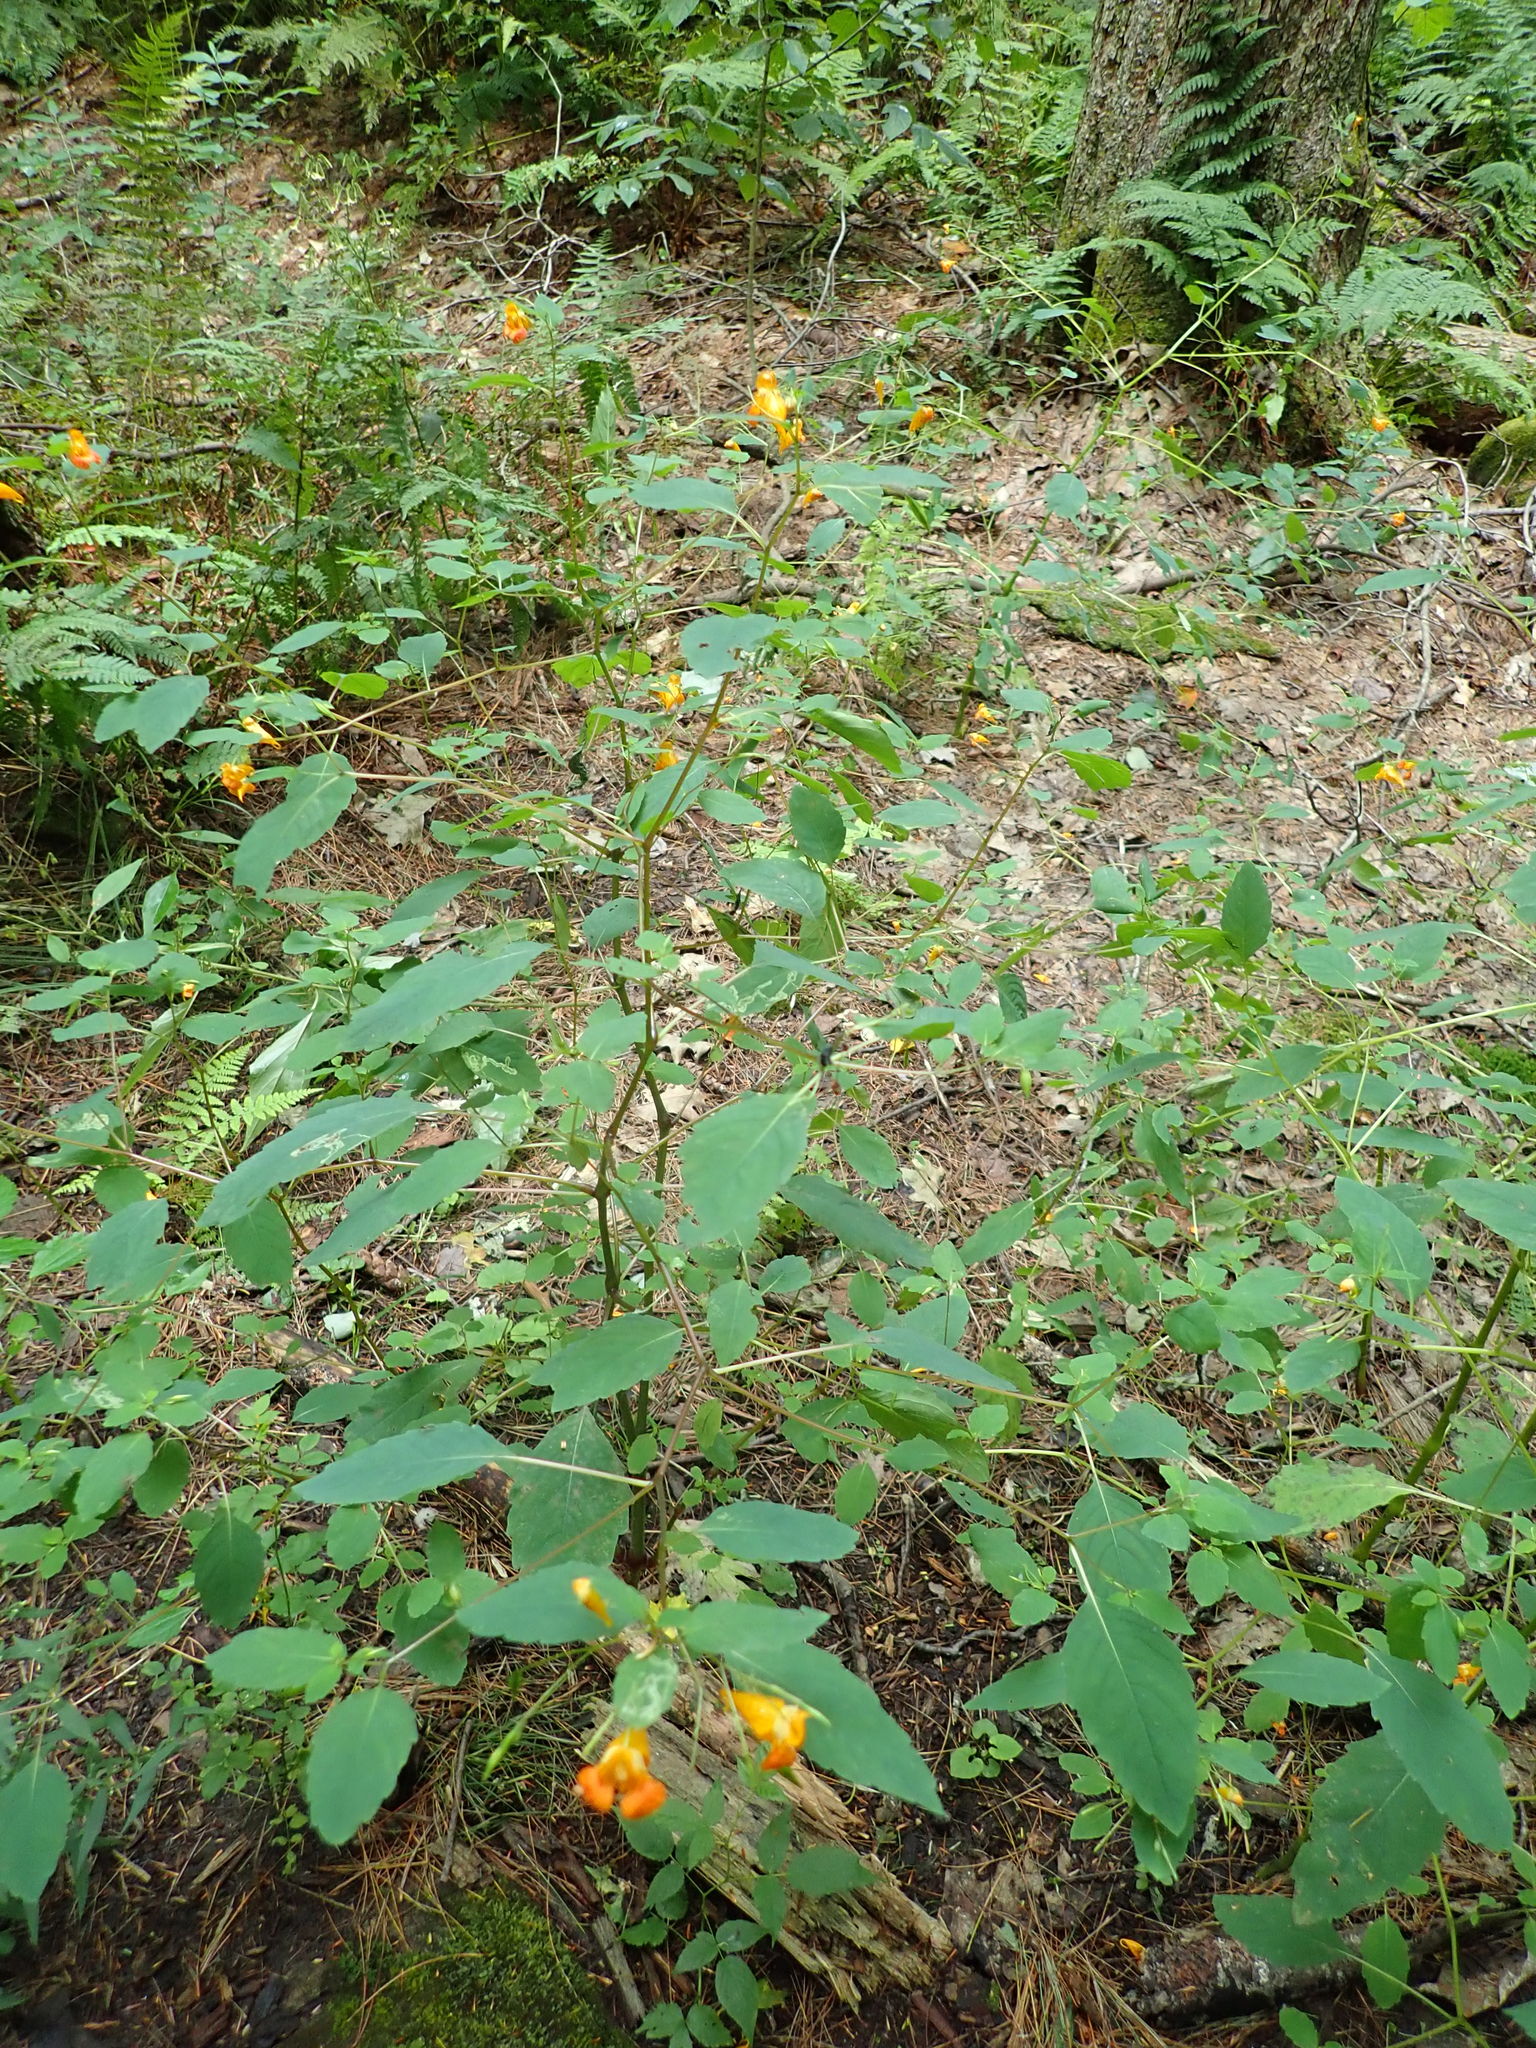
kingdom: Plantae
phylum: Tracheophyta
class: Magnoliopsida
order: Ericales
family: Balsaminaceae
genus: Impatiens
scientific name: Impatiens capensis
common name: Orange balsam
